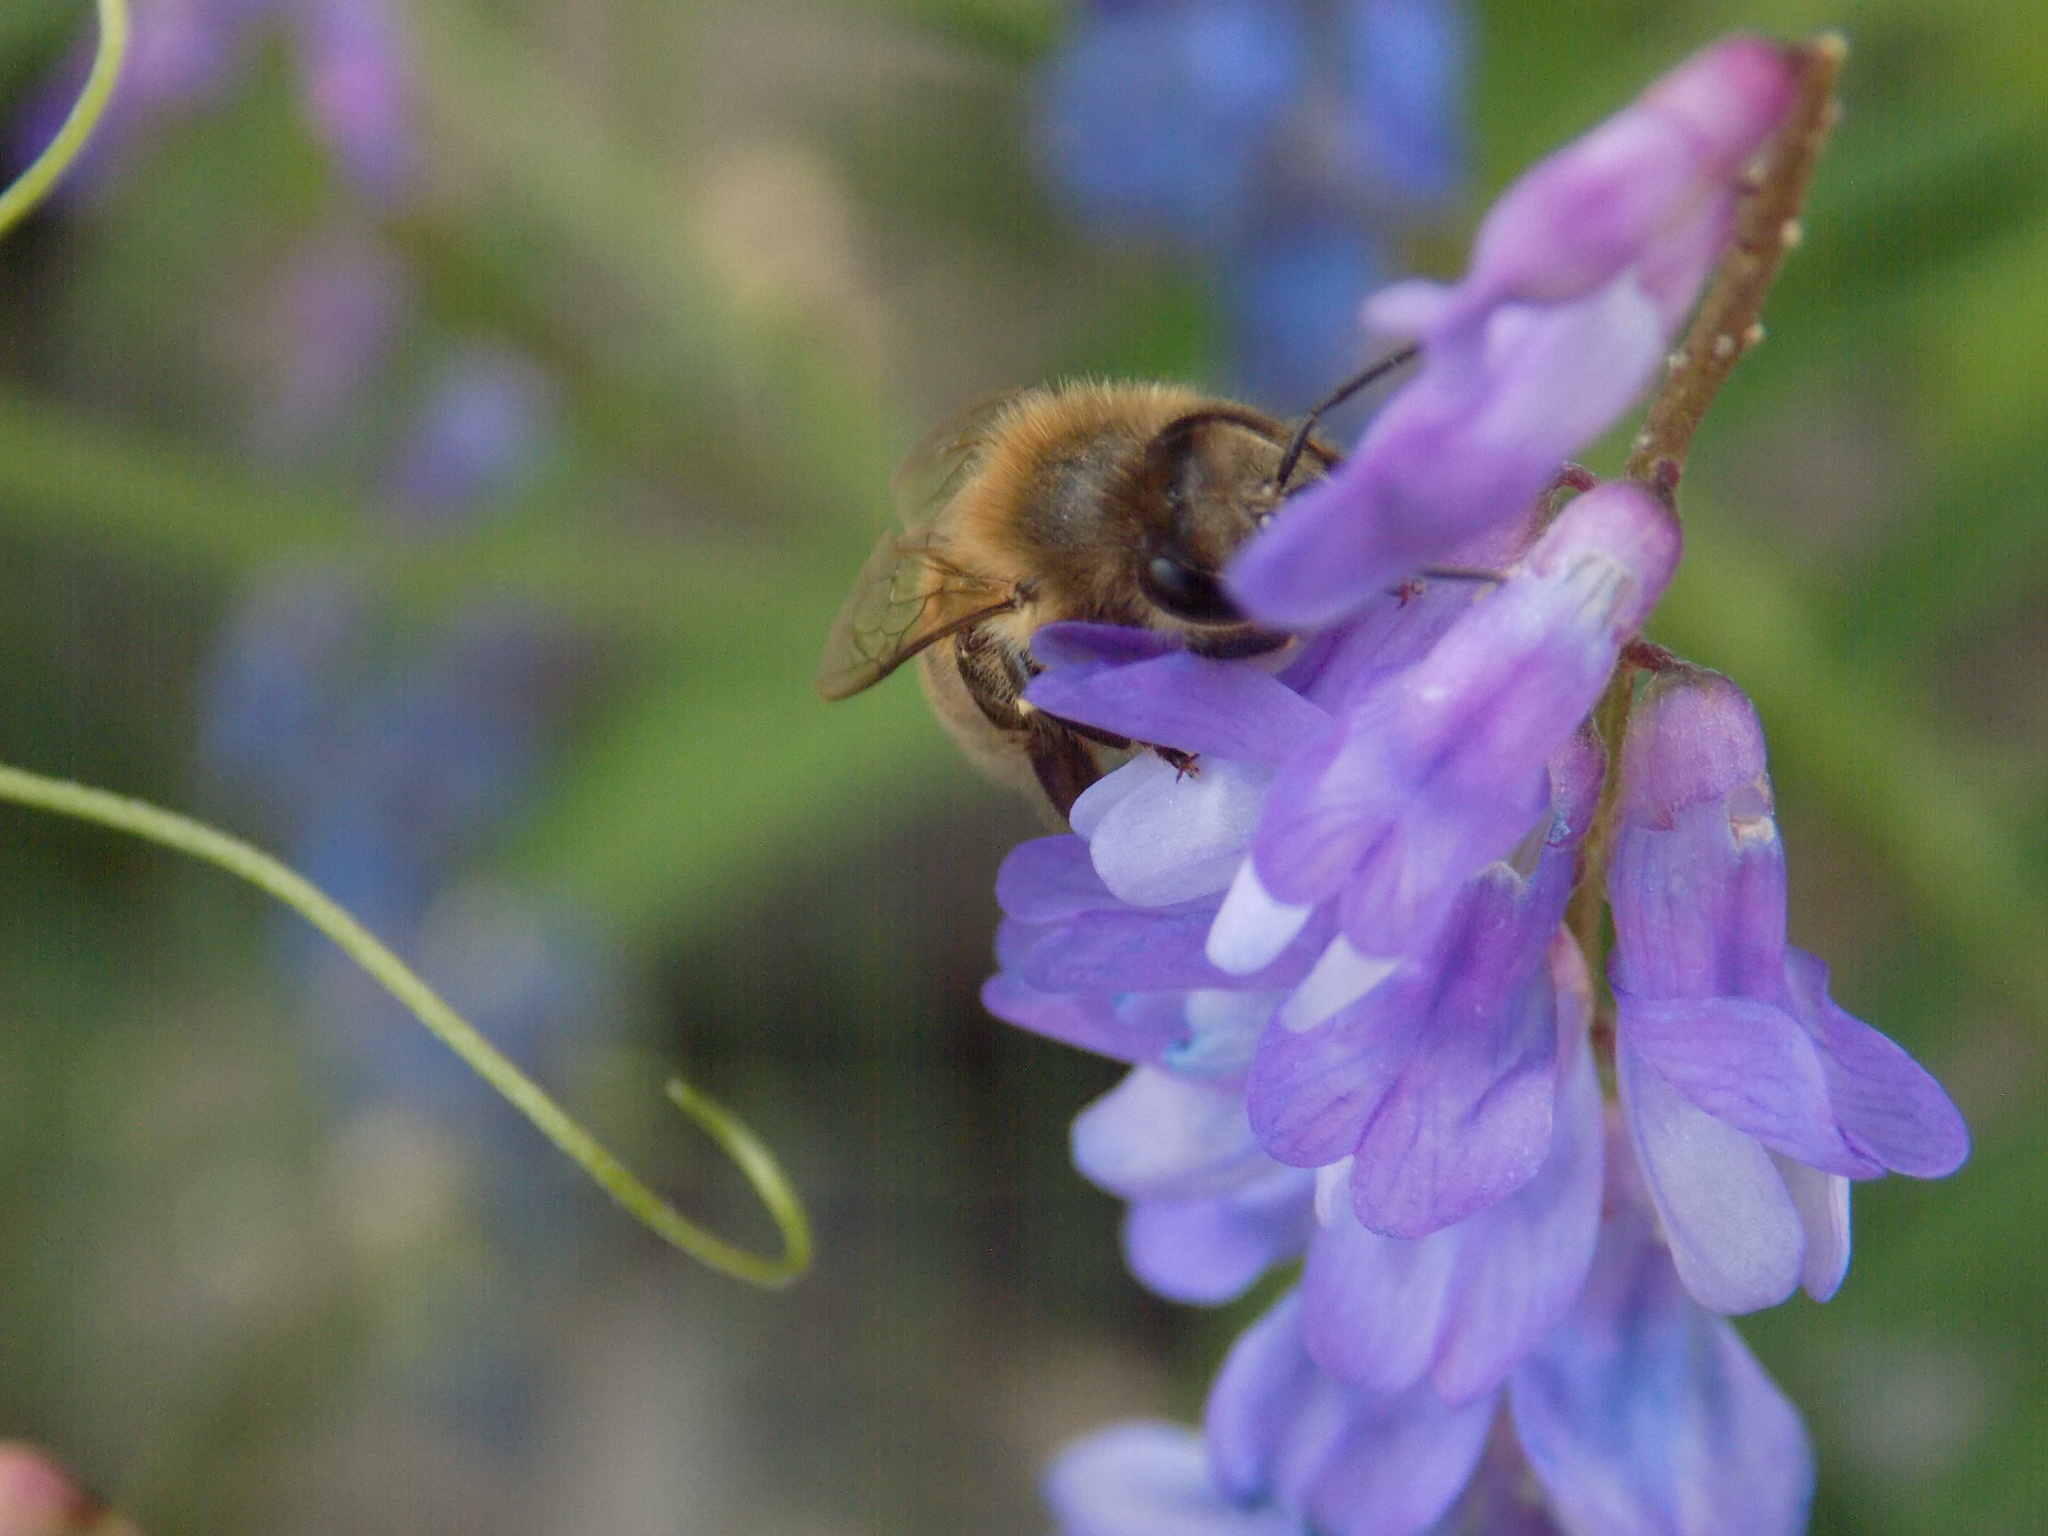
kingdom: Animalia
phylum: Arthropoda
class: Insecta
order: Hymenoptera
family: Apidae
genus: Apis
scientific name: Apis mellifera
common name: Honey bee
